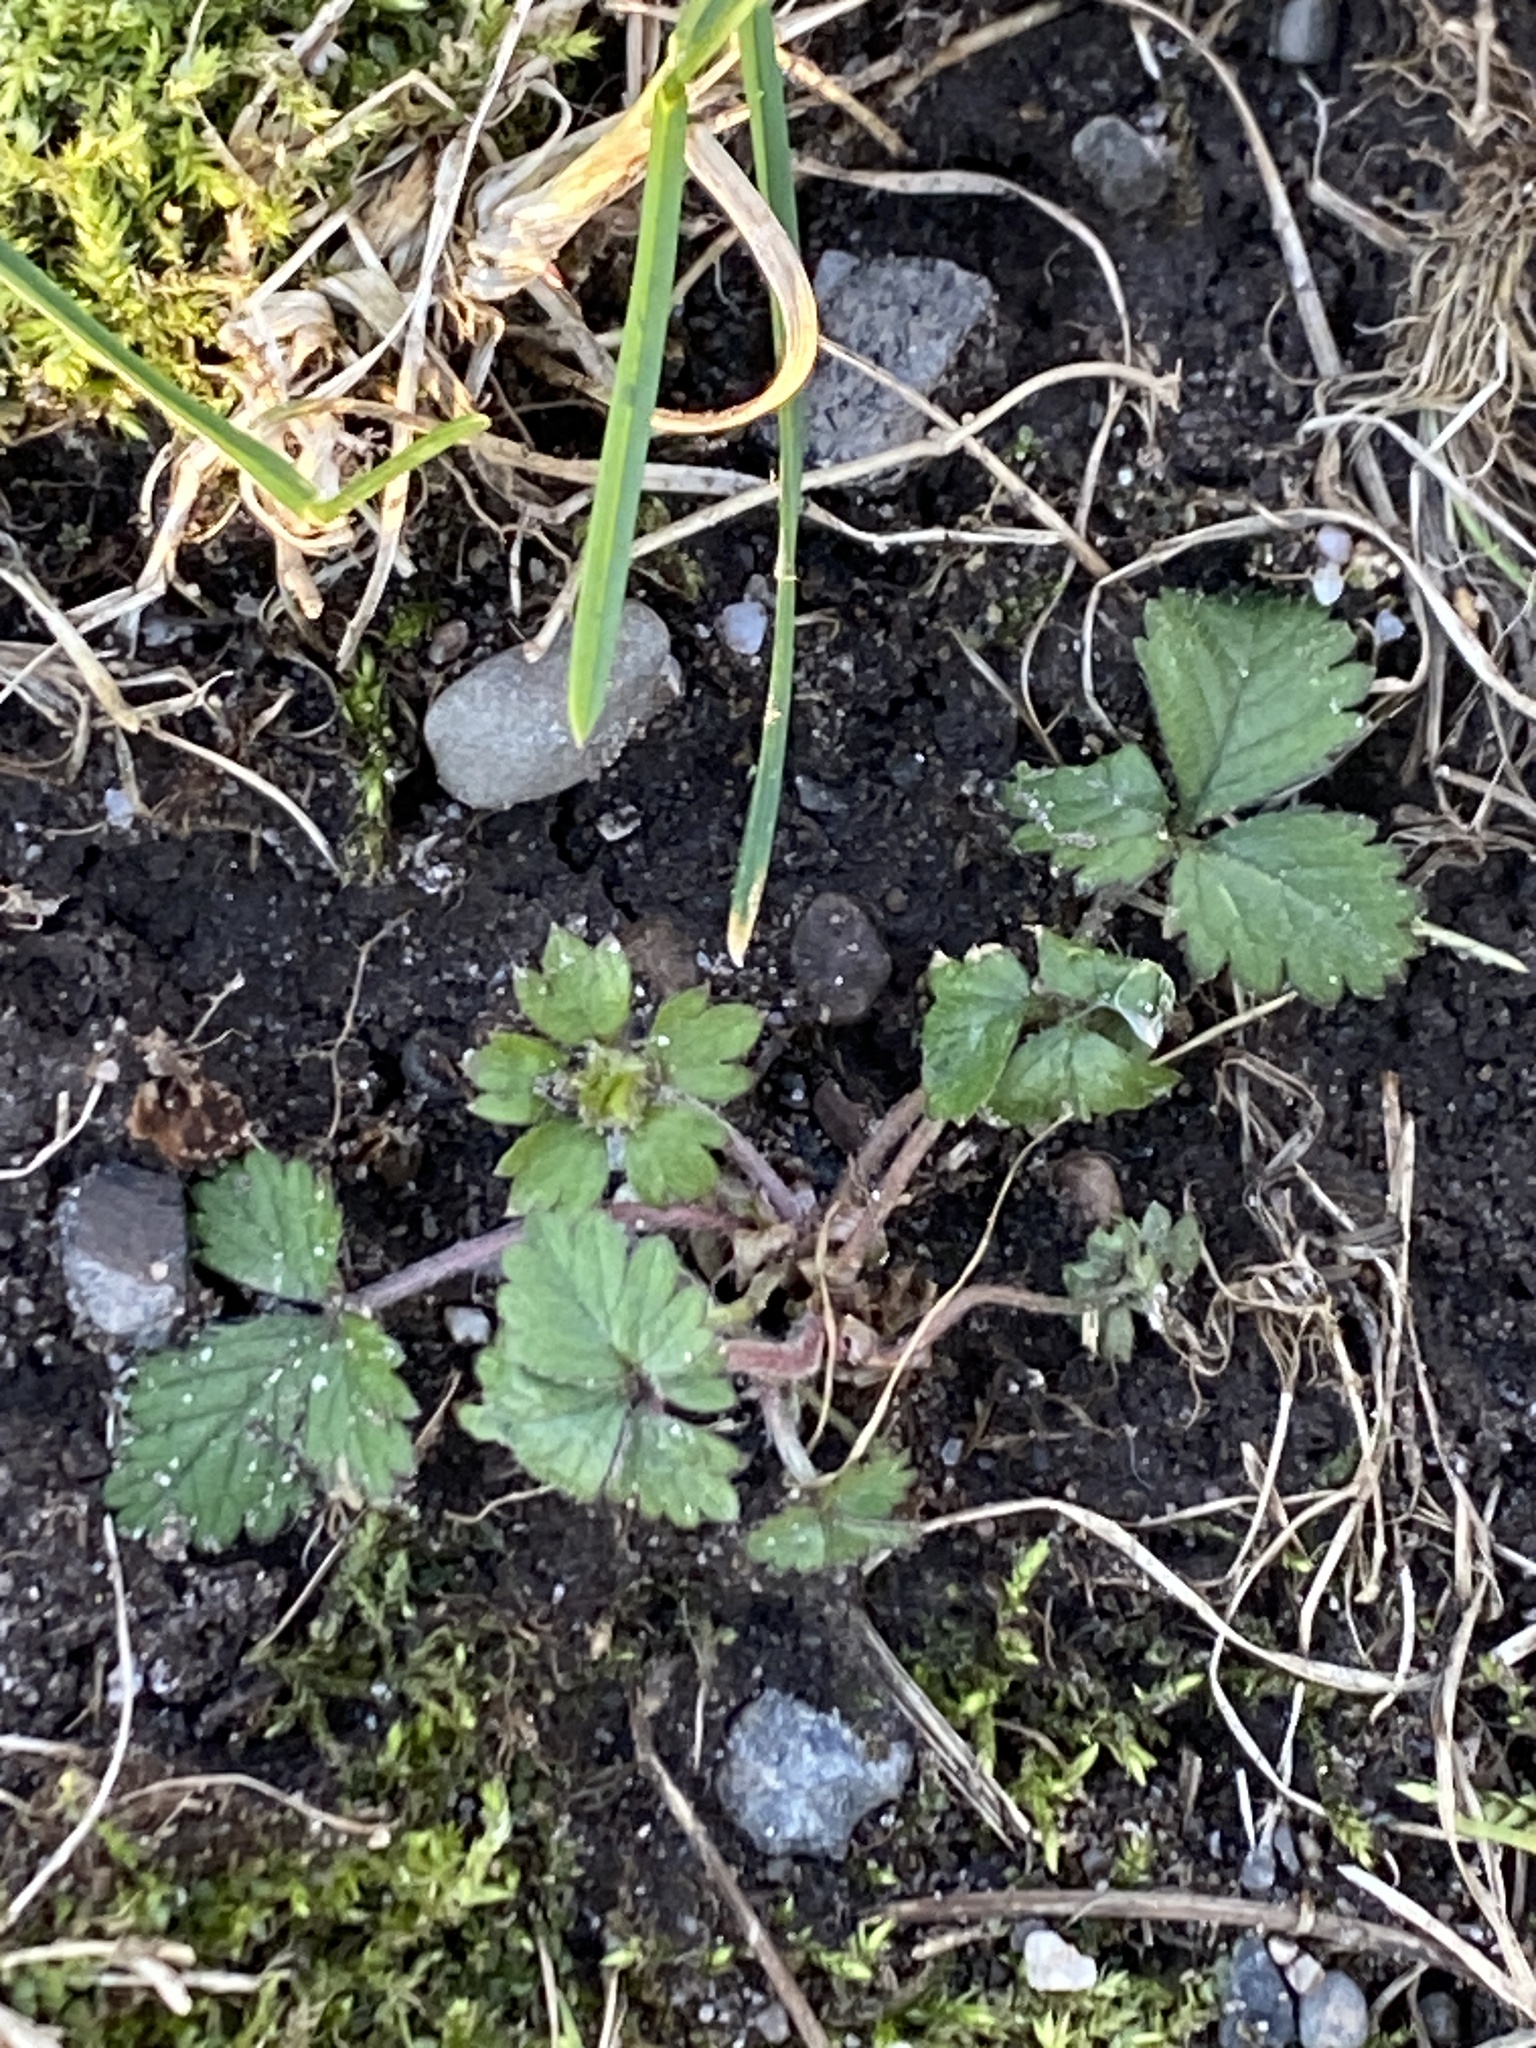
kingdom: Plantae
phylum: Tracheophyta
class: Magnoliopsida
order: Rosales
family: Rosaceae
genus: Potentilla
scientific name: Potentilla indica
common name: Yellow-flowered strawberry
